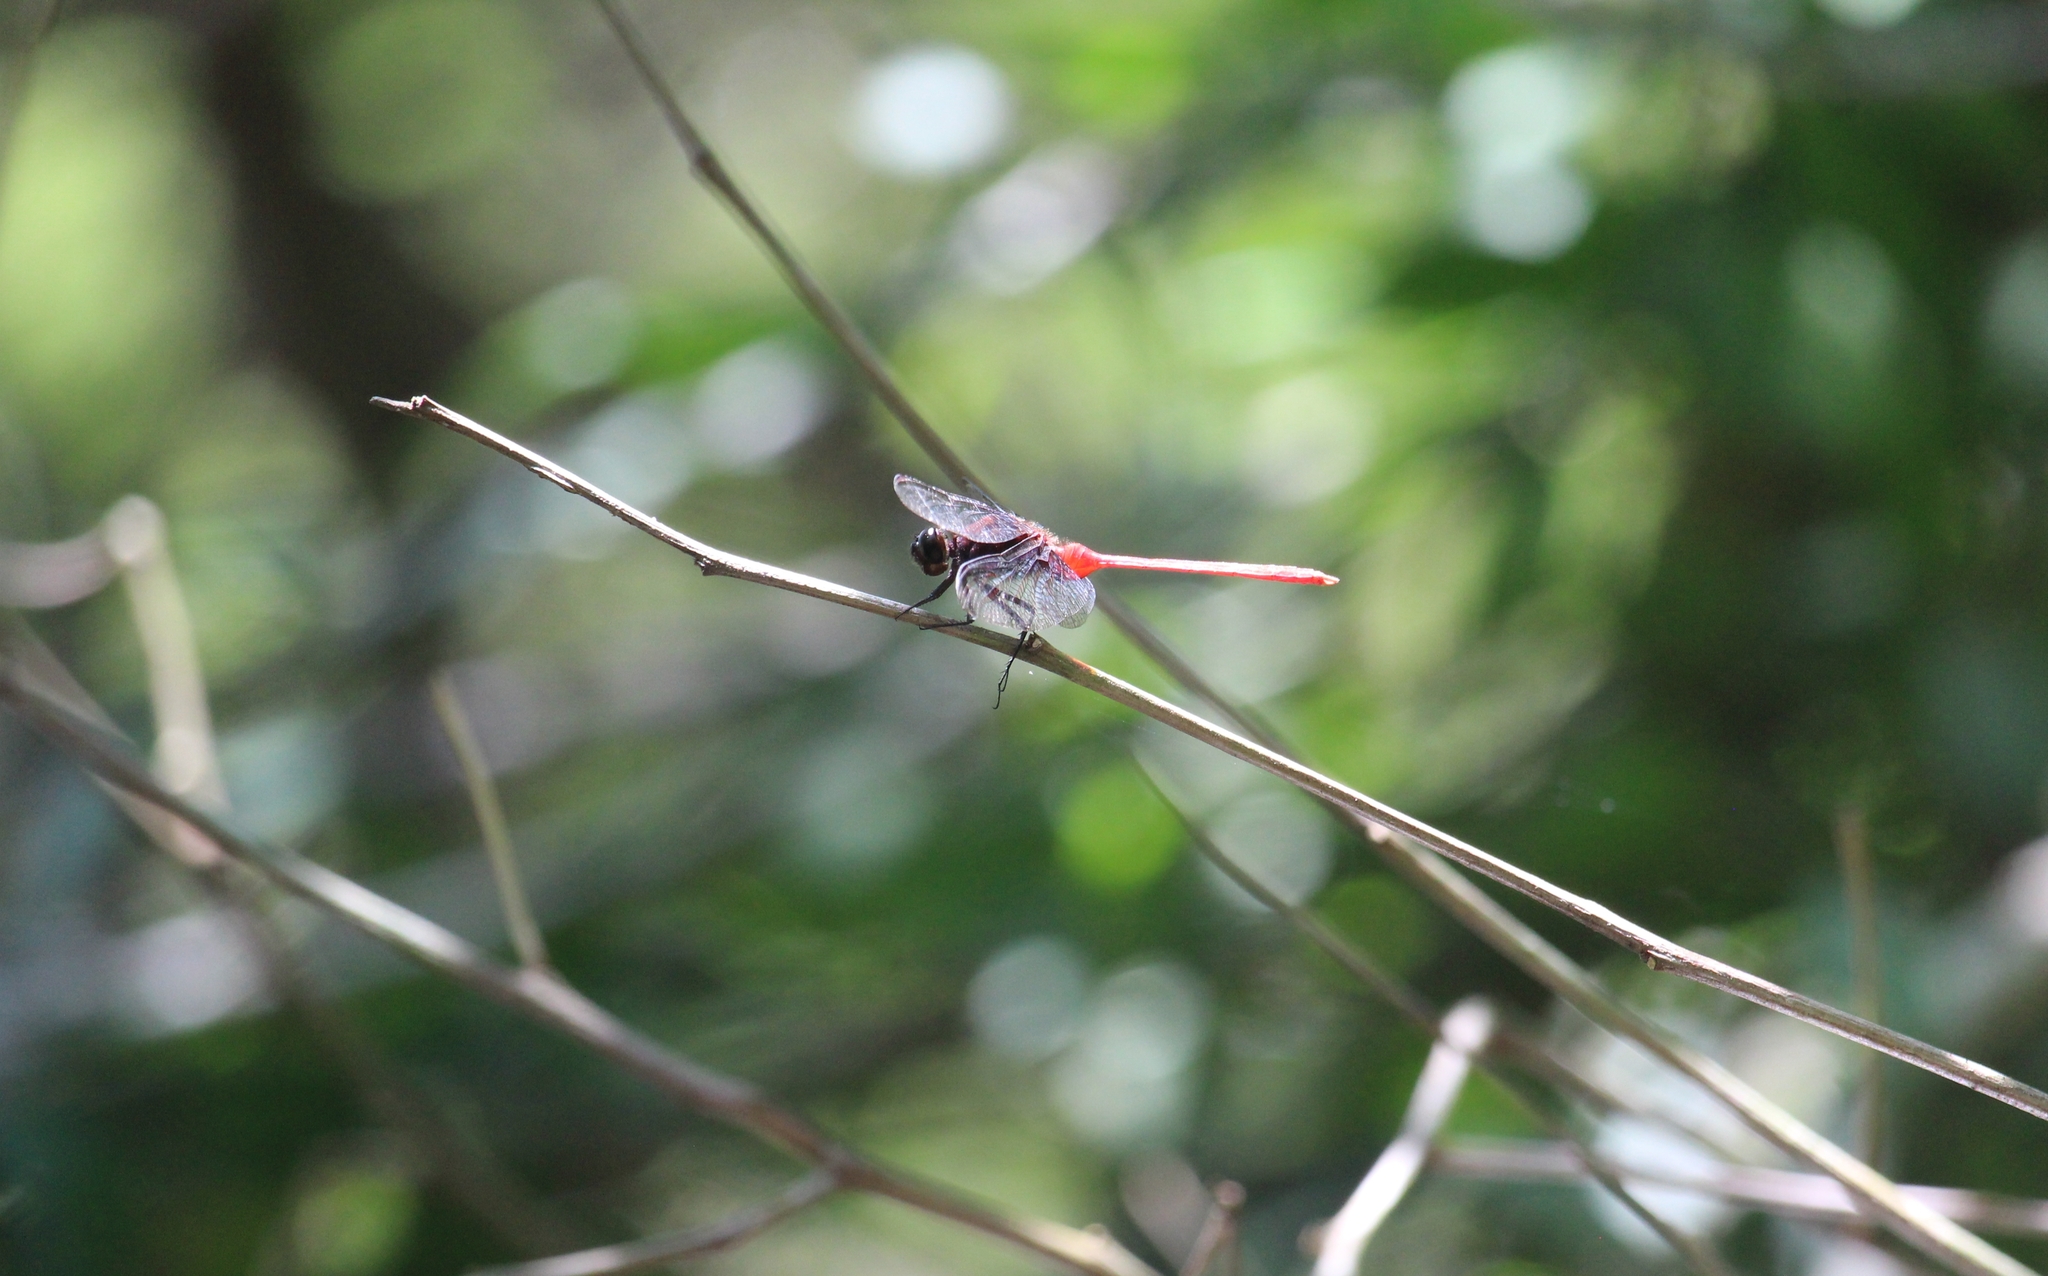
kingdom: Animalia
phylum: Arthropoda
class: Insecta
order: Odonata
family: Libellulidae
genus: Erythemis
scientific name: Erythemis haematogastra
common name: Red pondhawk
